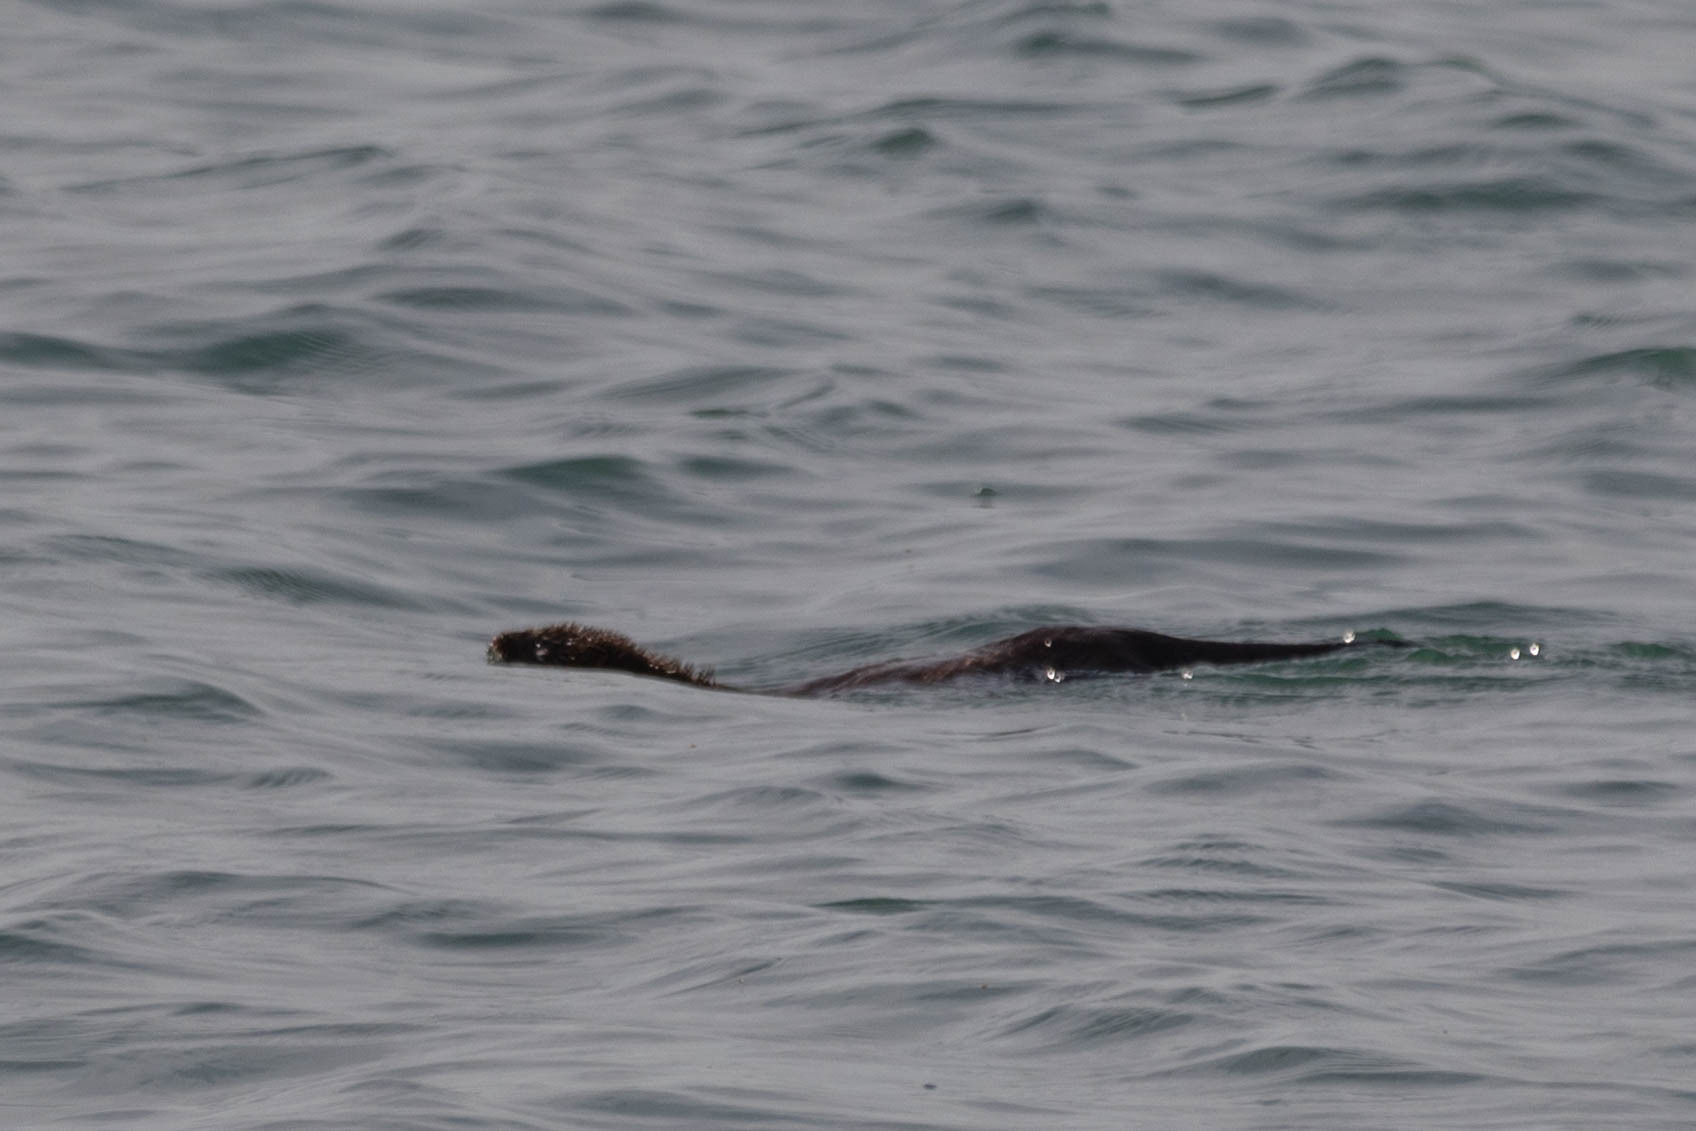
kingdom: Animalia
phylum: Chordata
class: Mammalia
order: Carnivora
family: Mustelidae
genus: Mustela
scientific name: Mustela
